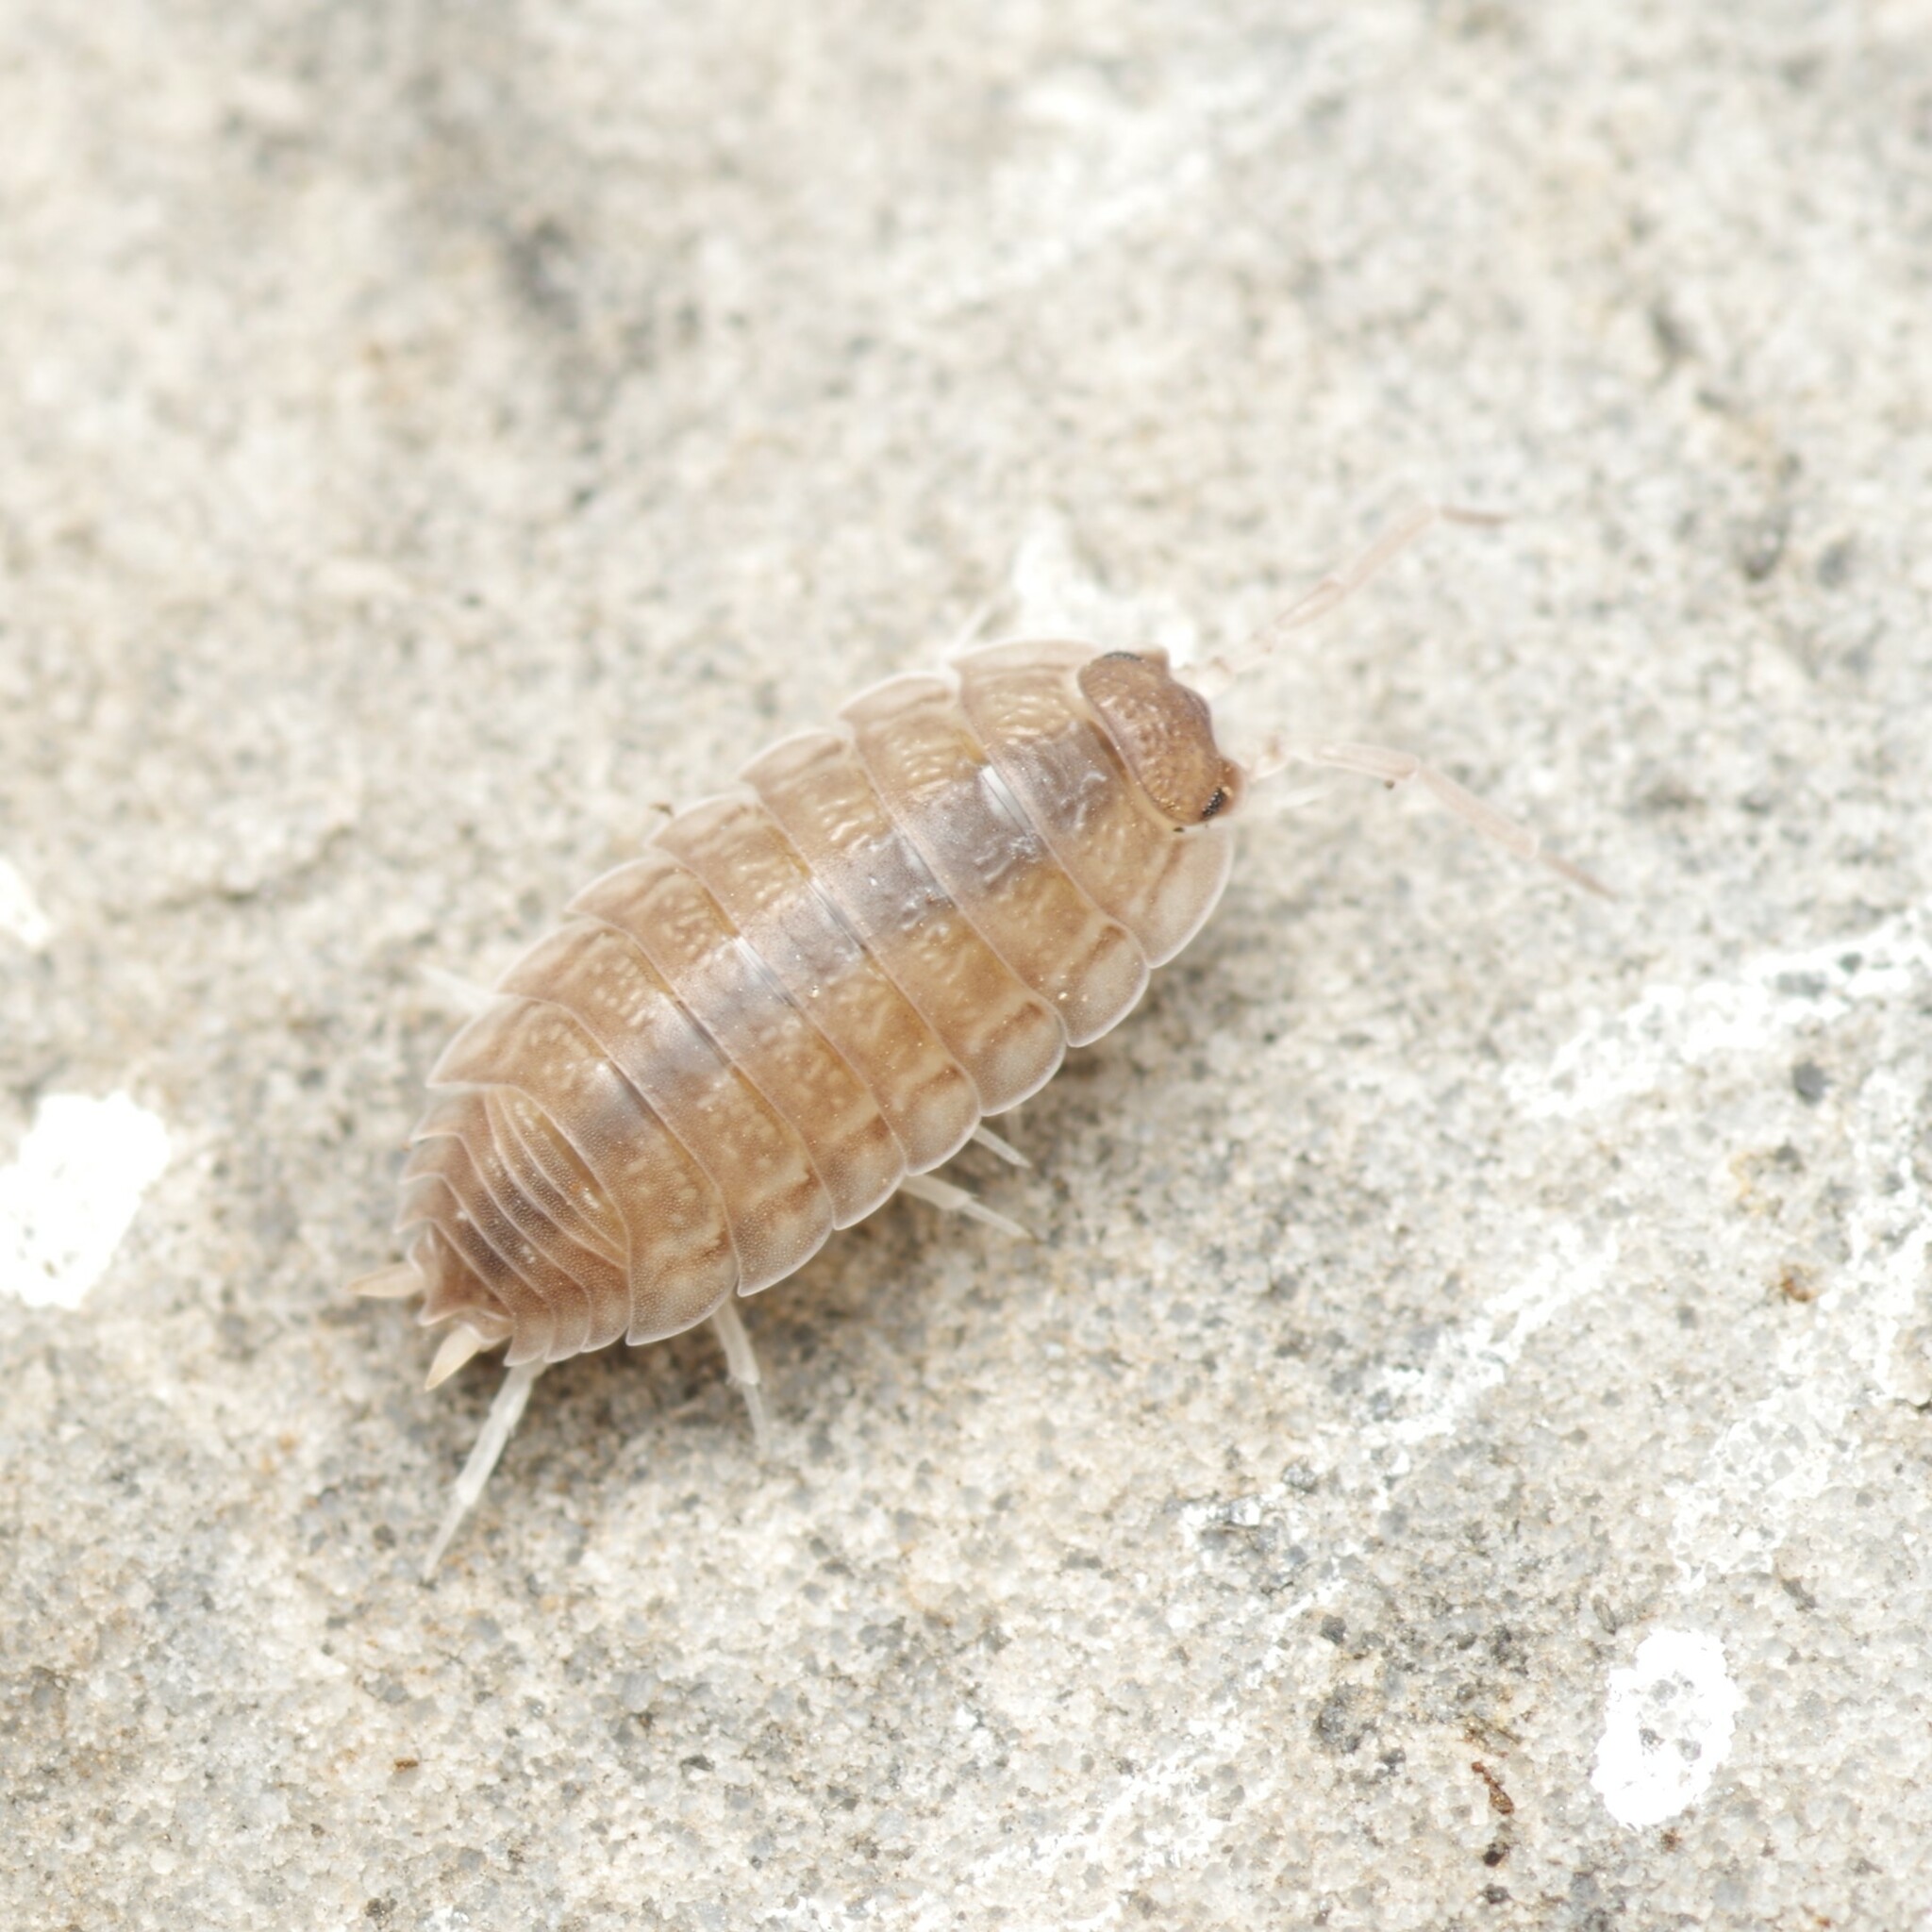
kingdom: Animalia
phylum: Arthropoda
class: Malacostraca
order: Isopoda
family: Porcellionidae
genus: Porcellio
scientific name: Porcellio violaceus
